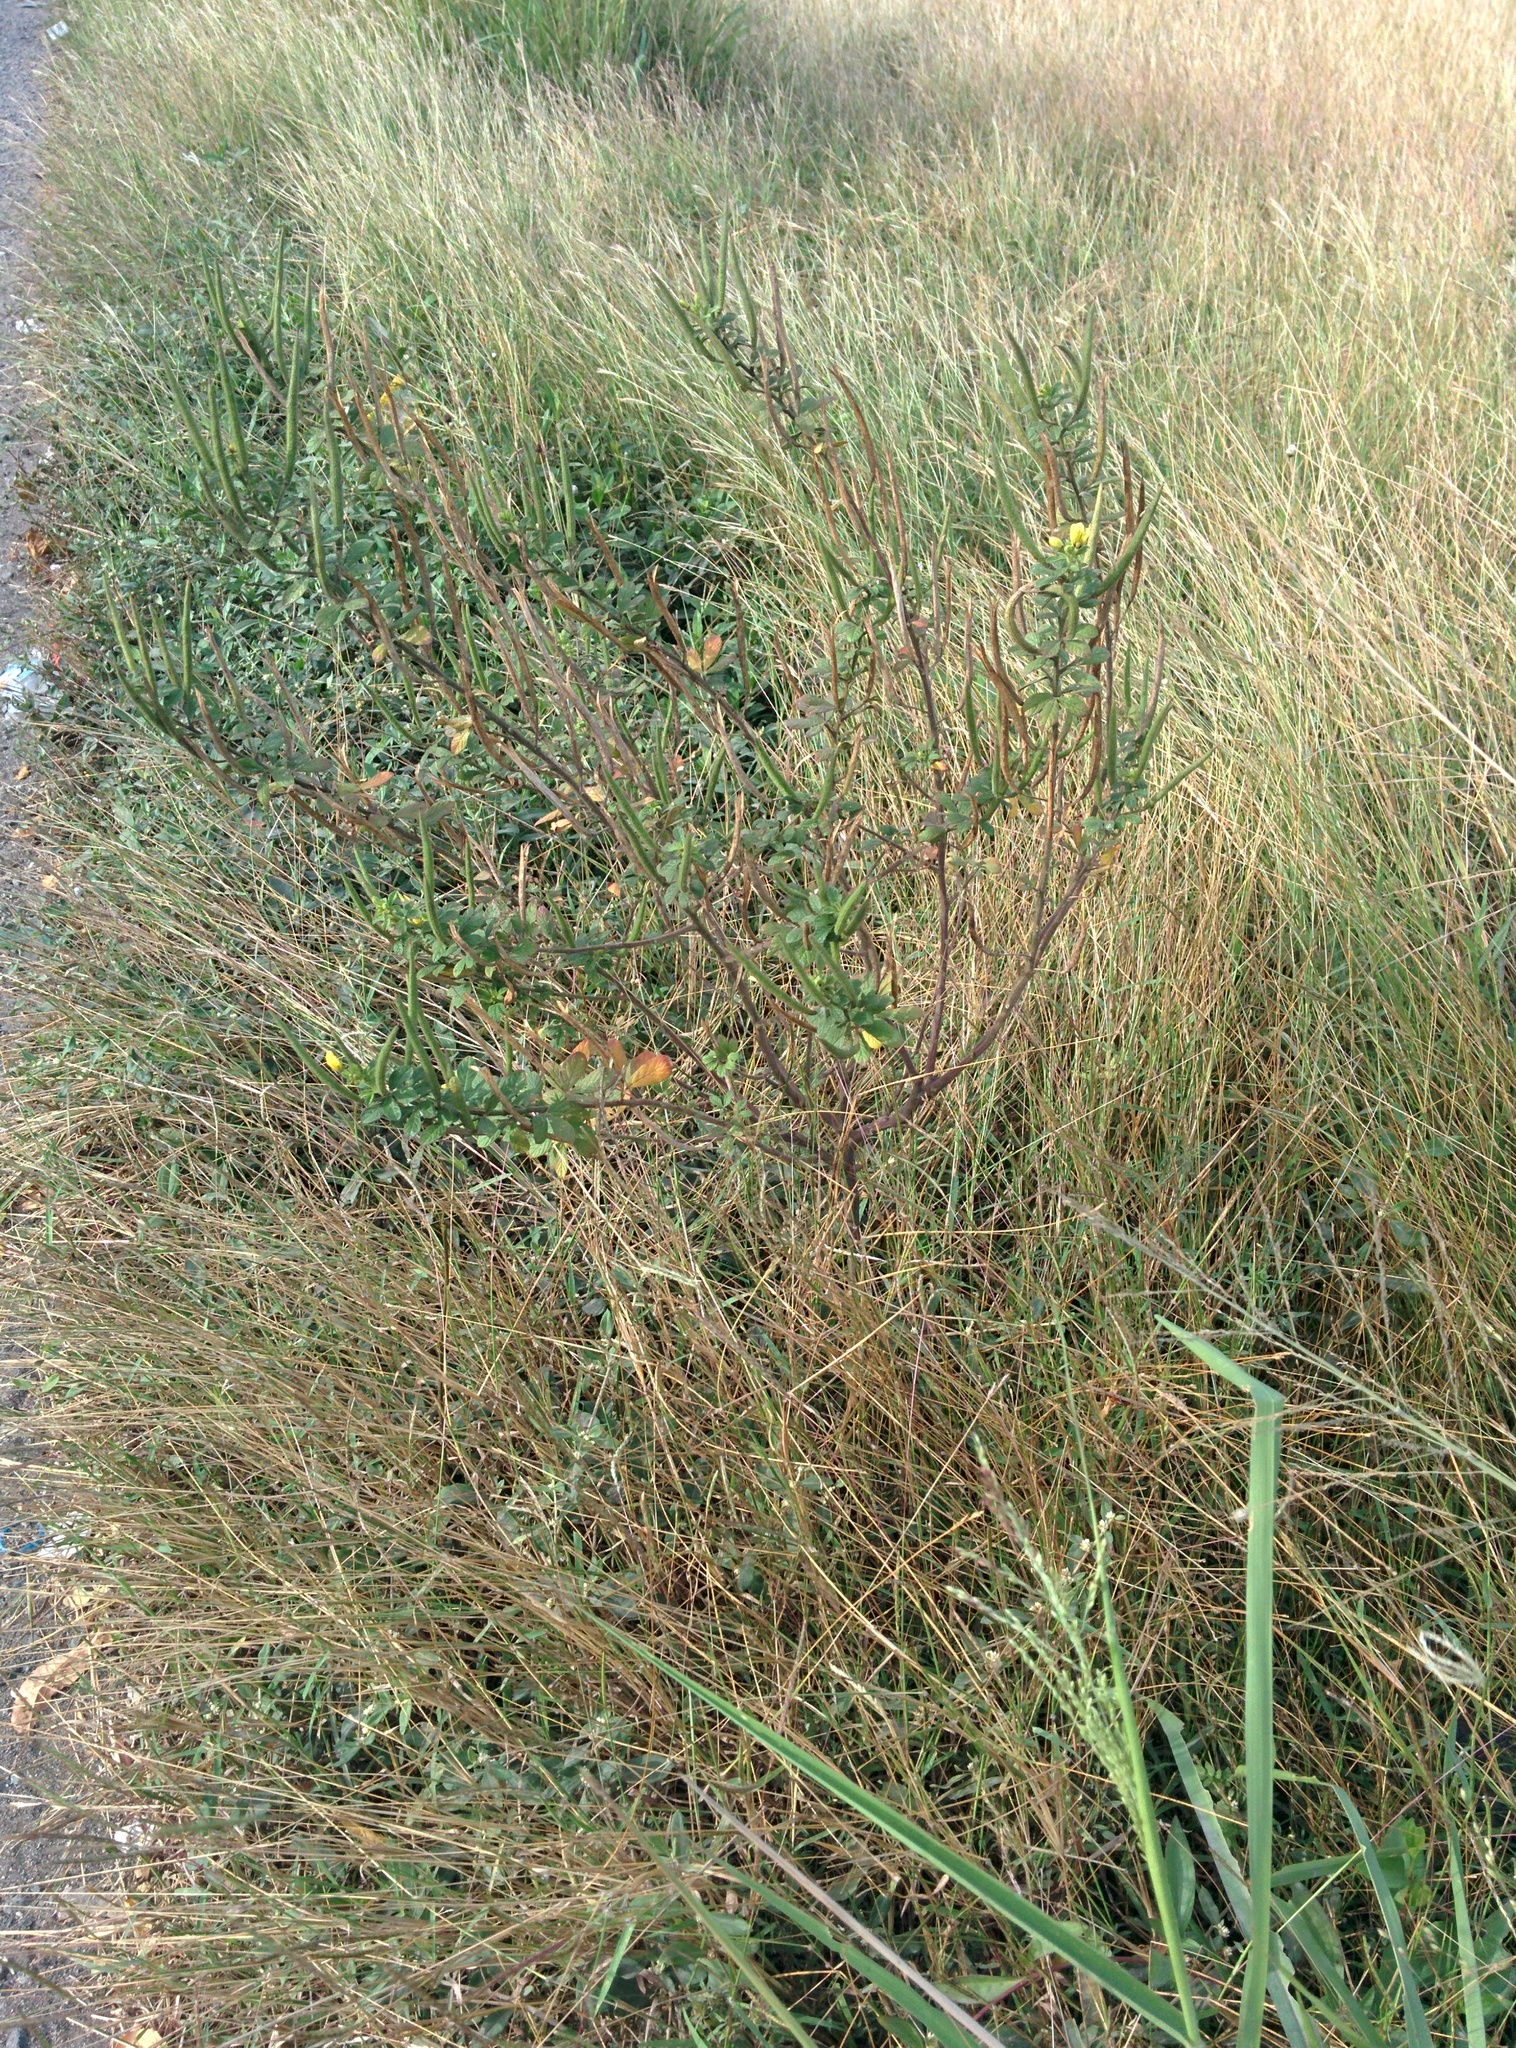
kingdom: Plantae
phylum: Tracheophyta
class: Magnoliopsida
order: Brassicales
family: Cleomaceae
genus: Arivela
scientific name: Arivela viscosa
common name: Asian spiderflower
